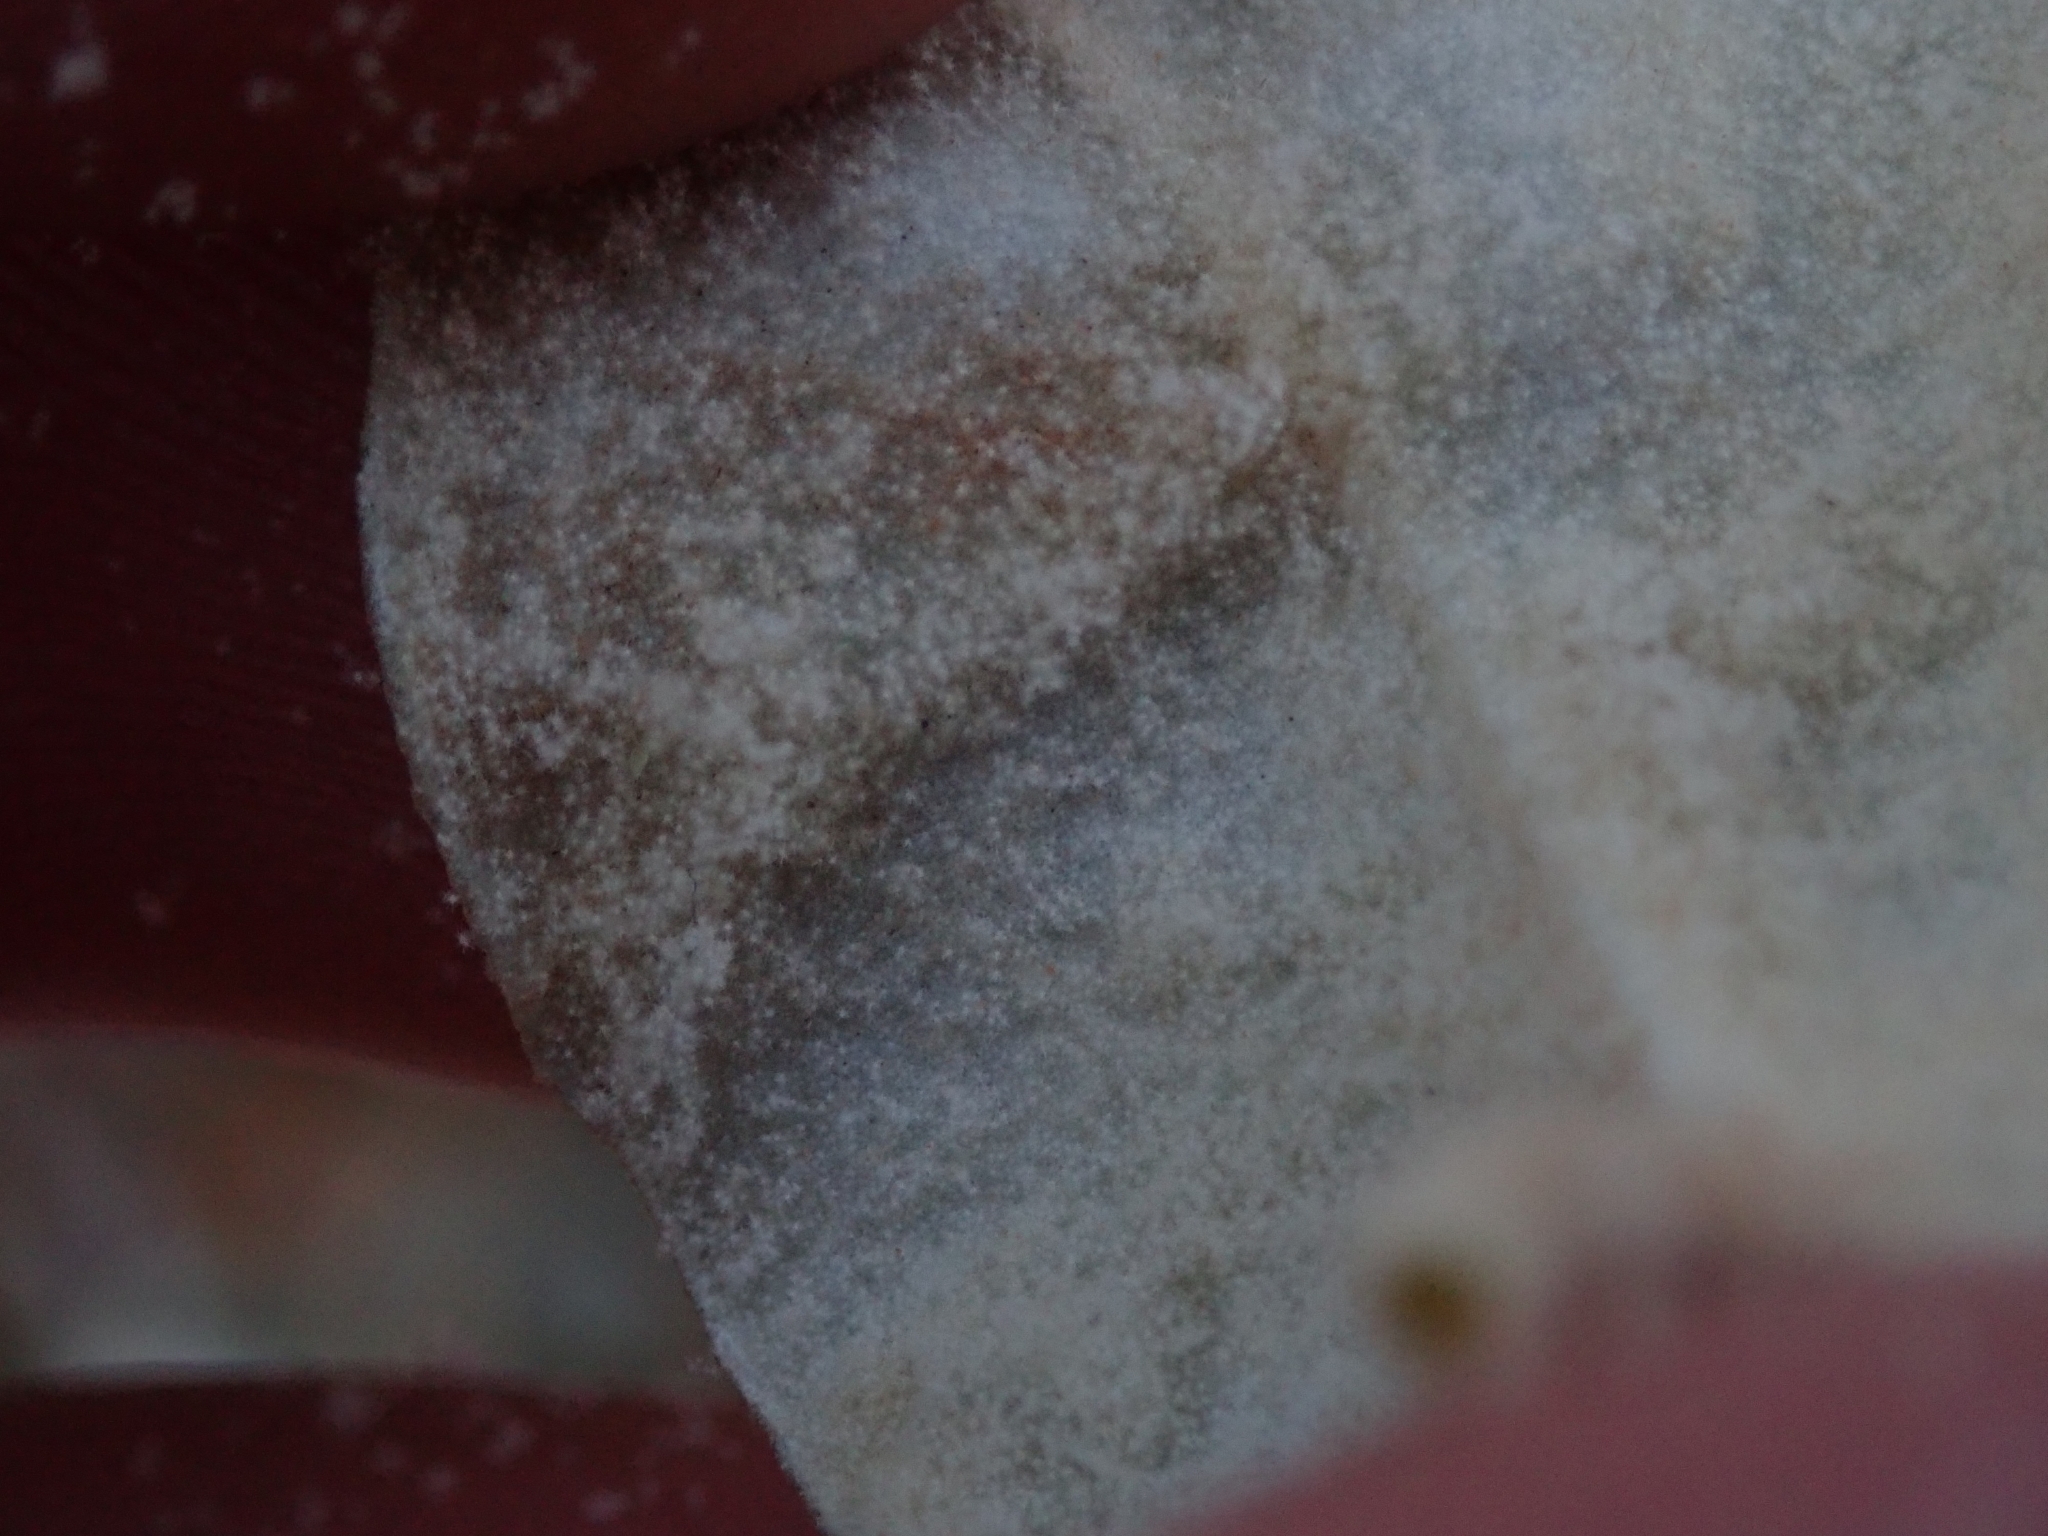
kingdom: Plantae
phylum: Tracheophyta
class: Magnoliopsida
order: Rosales
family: Elaeagnaceae
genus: Shepherdia
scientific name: Shepherdia rotundifolia
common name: Silverscale
